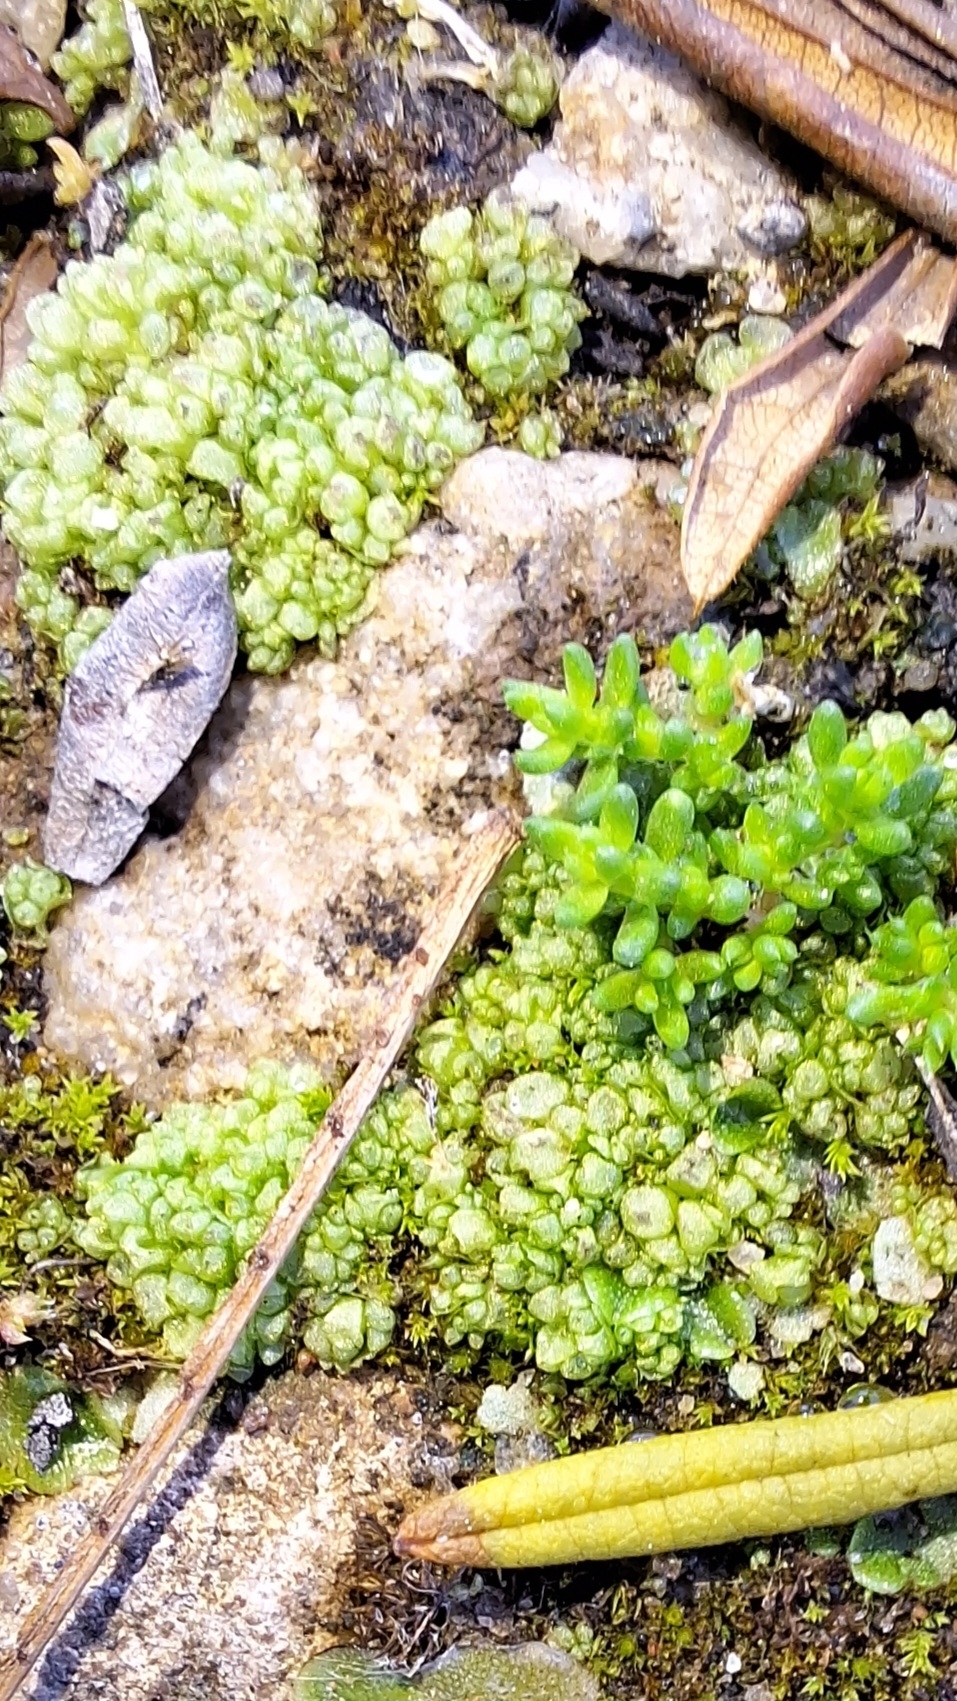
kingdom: Plantae
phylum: Marchantiophyta
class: Marchantiopsida
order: Sphaerocarpales
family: Sphaerocarpaceae
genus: Sphaerocarpos
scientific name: Sphaerocarpos texanus
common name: Texas balloonwort
